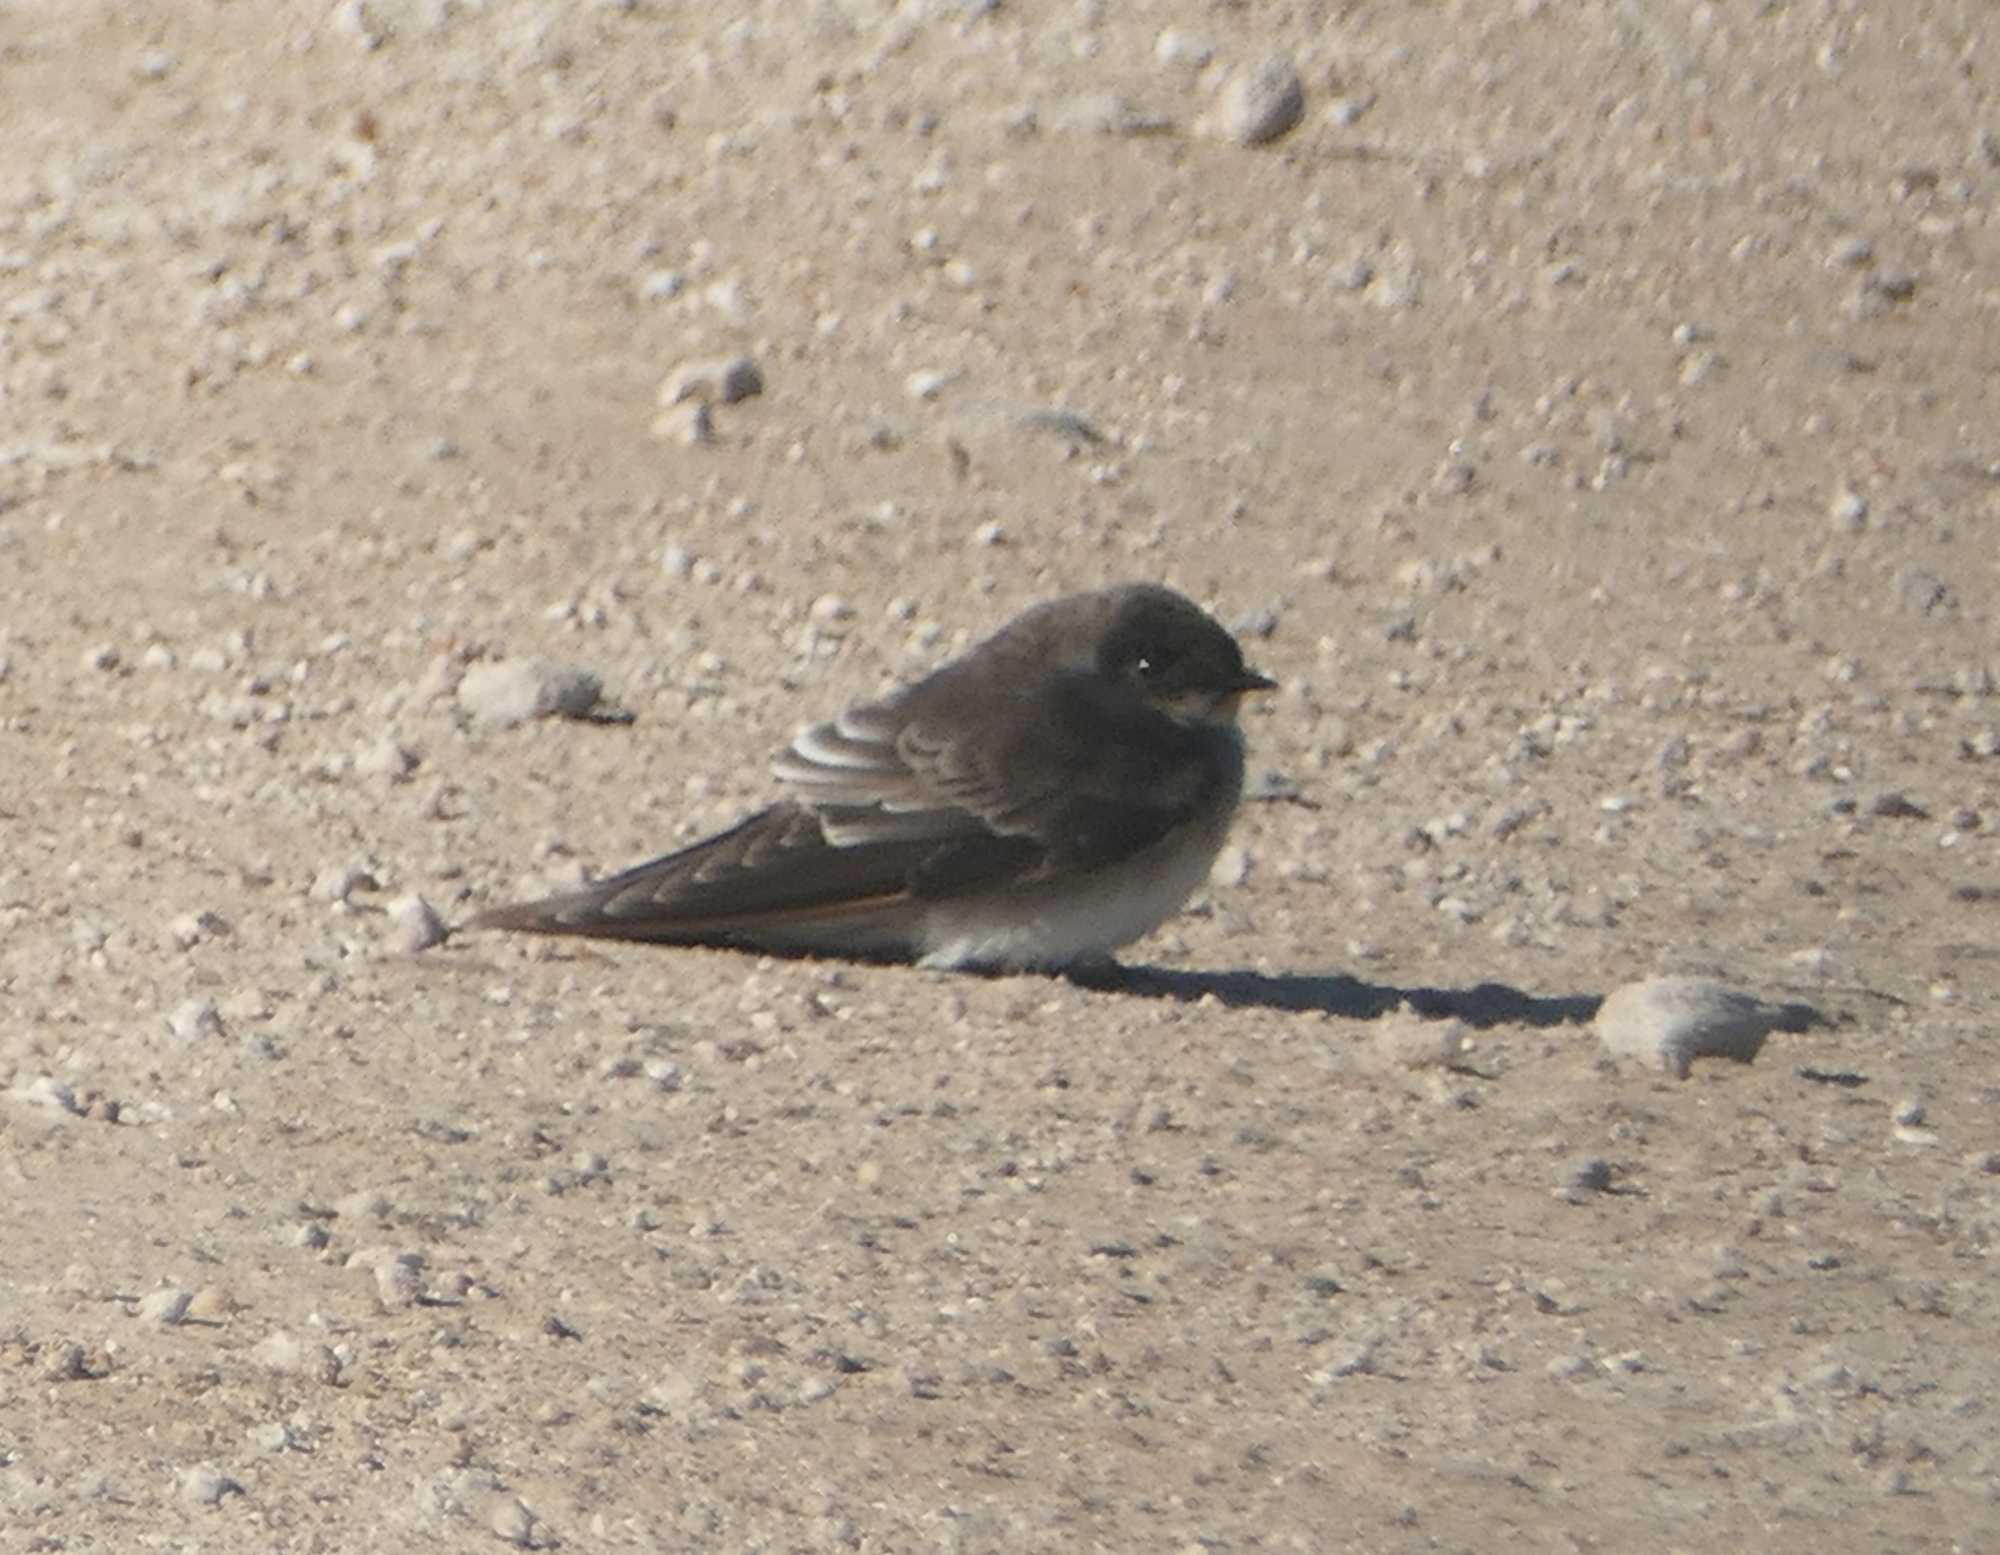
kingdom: Animalia
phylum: Chordata
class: Aves
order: Passeriformes
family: Hirundinidae
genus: Stelgidopteryx
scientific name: Stelgidopteryx serripennis
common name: Northern rough-winged swallow
